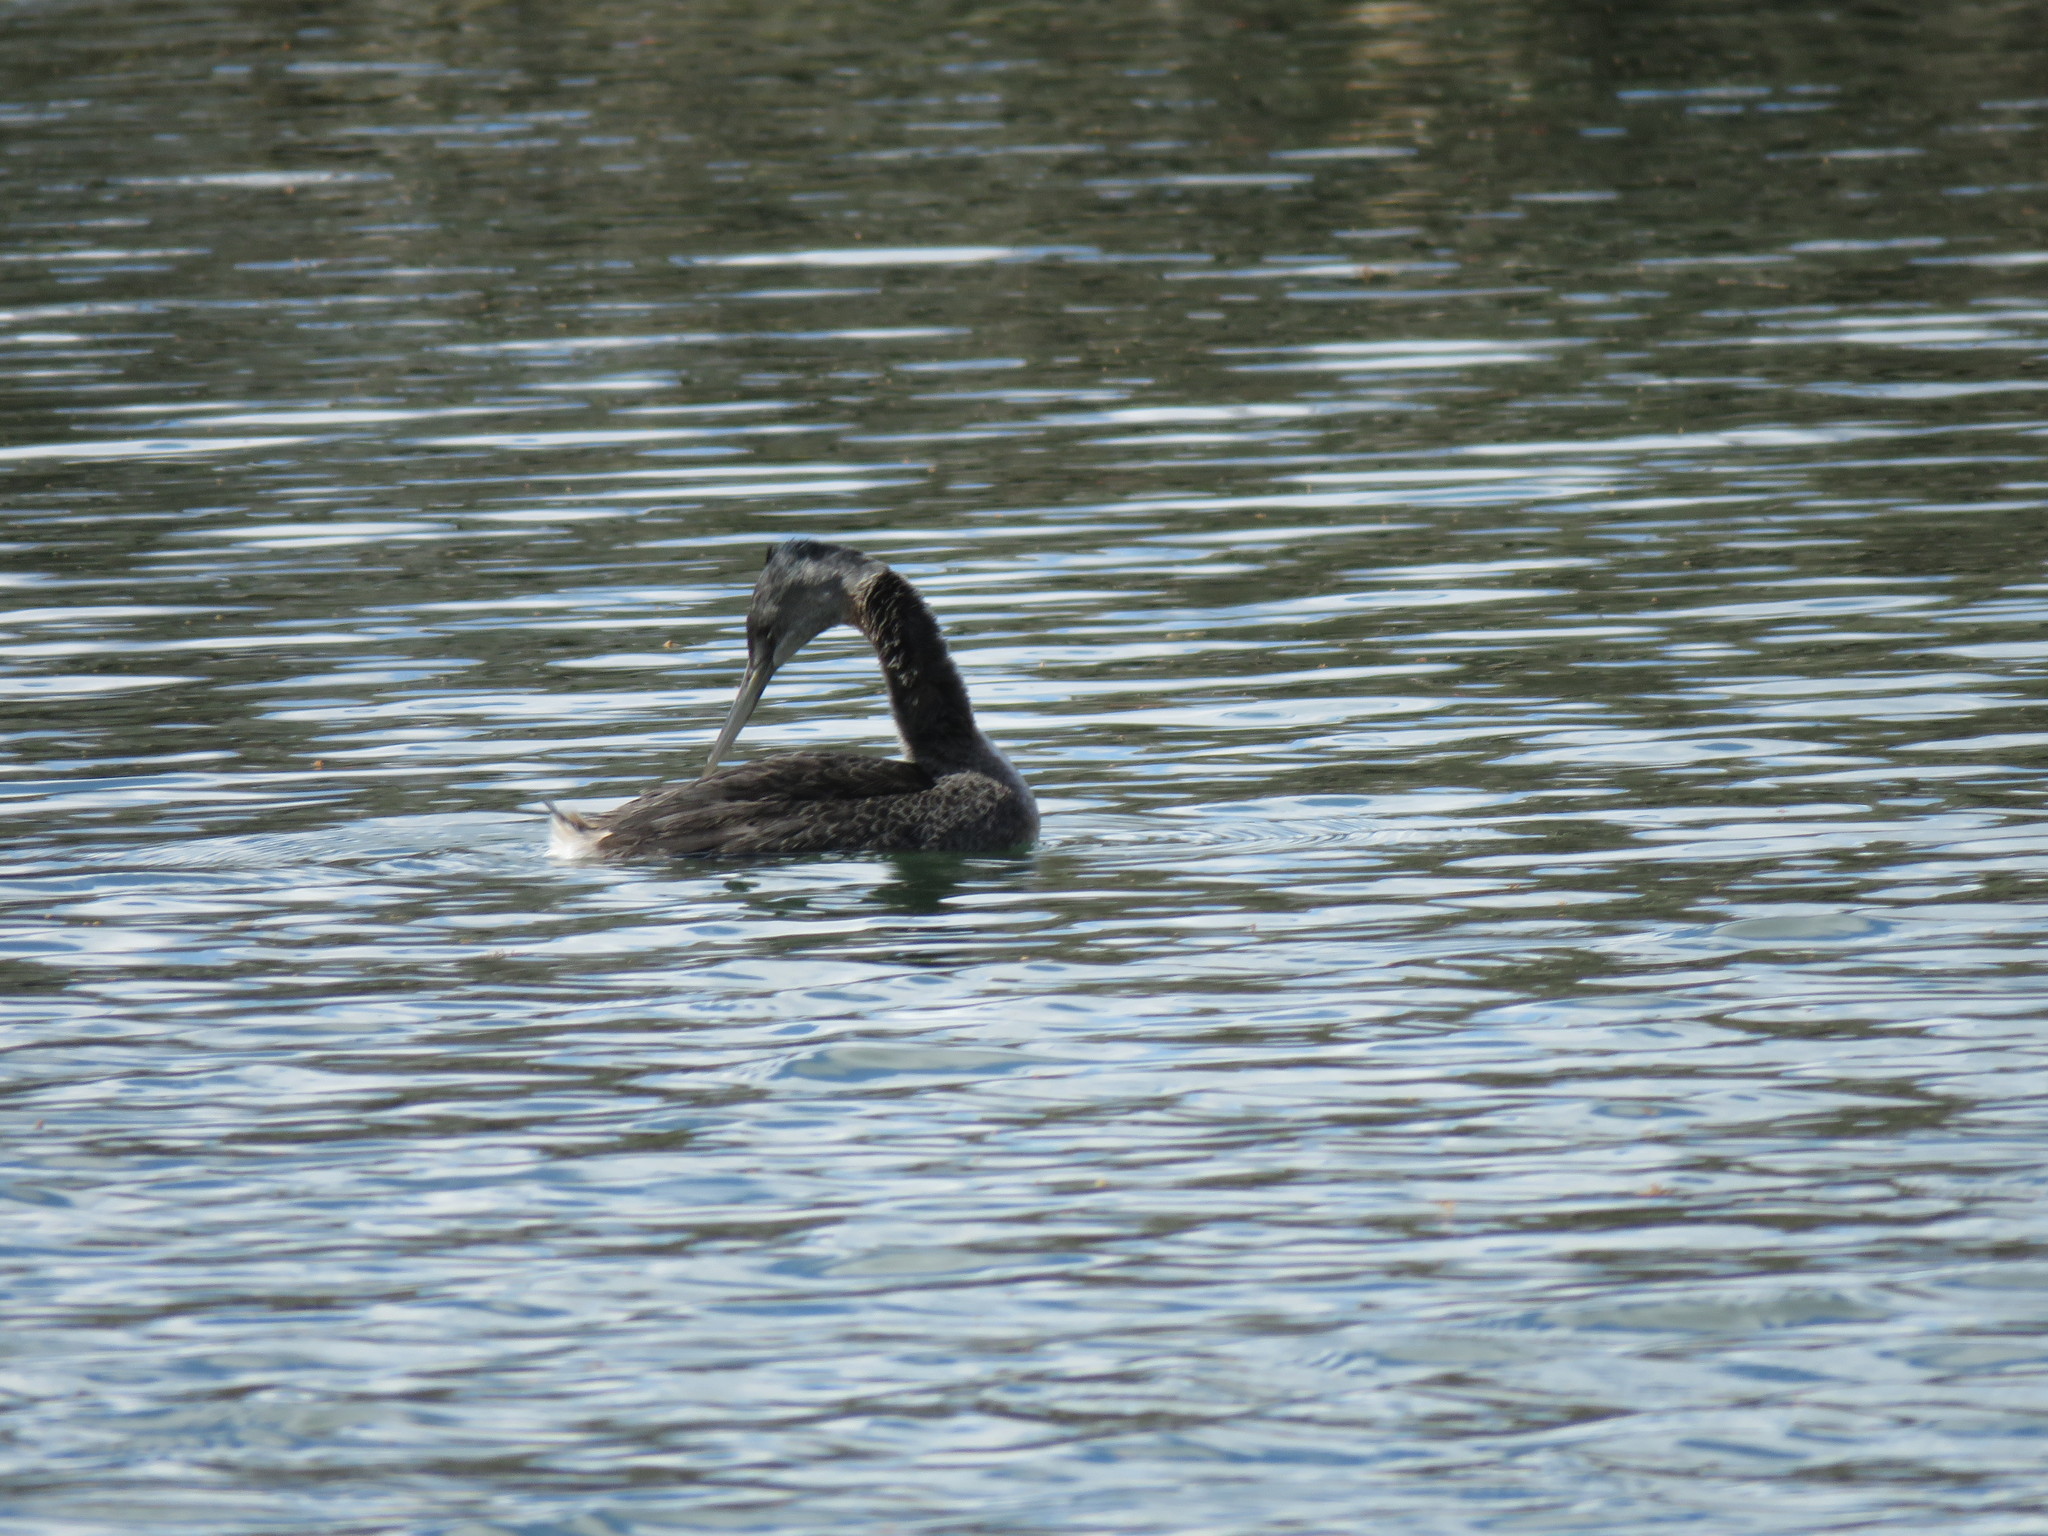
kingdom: Animalia
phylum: Chordata
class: Aves
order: Podicipediformes
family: Podicipedidae
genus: Podiceps
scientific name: Podiceps major
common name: Great grebe
